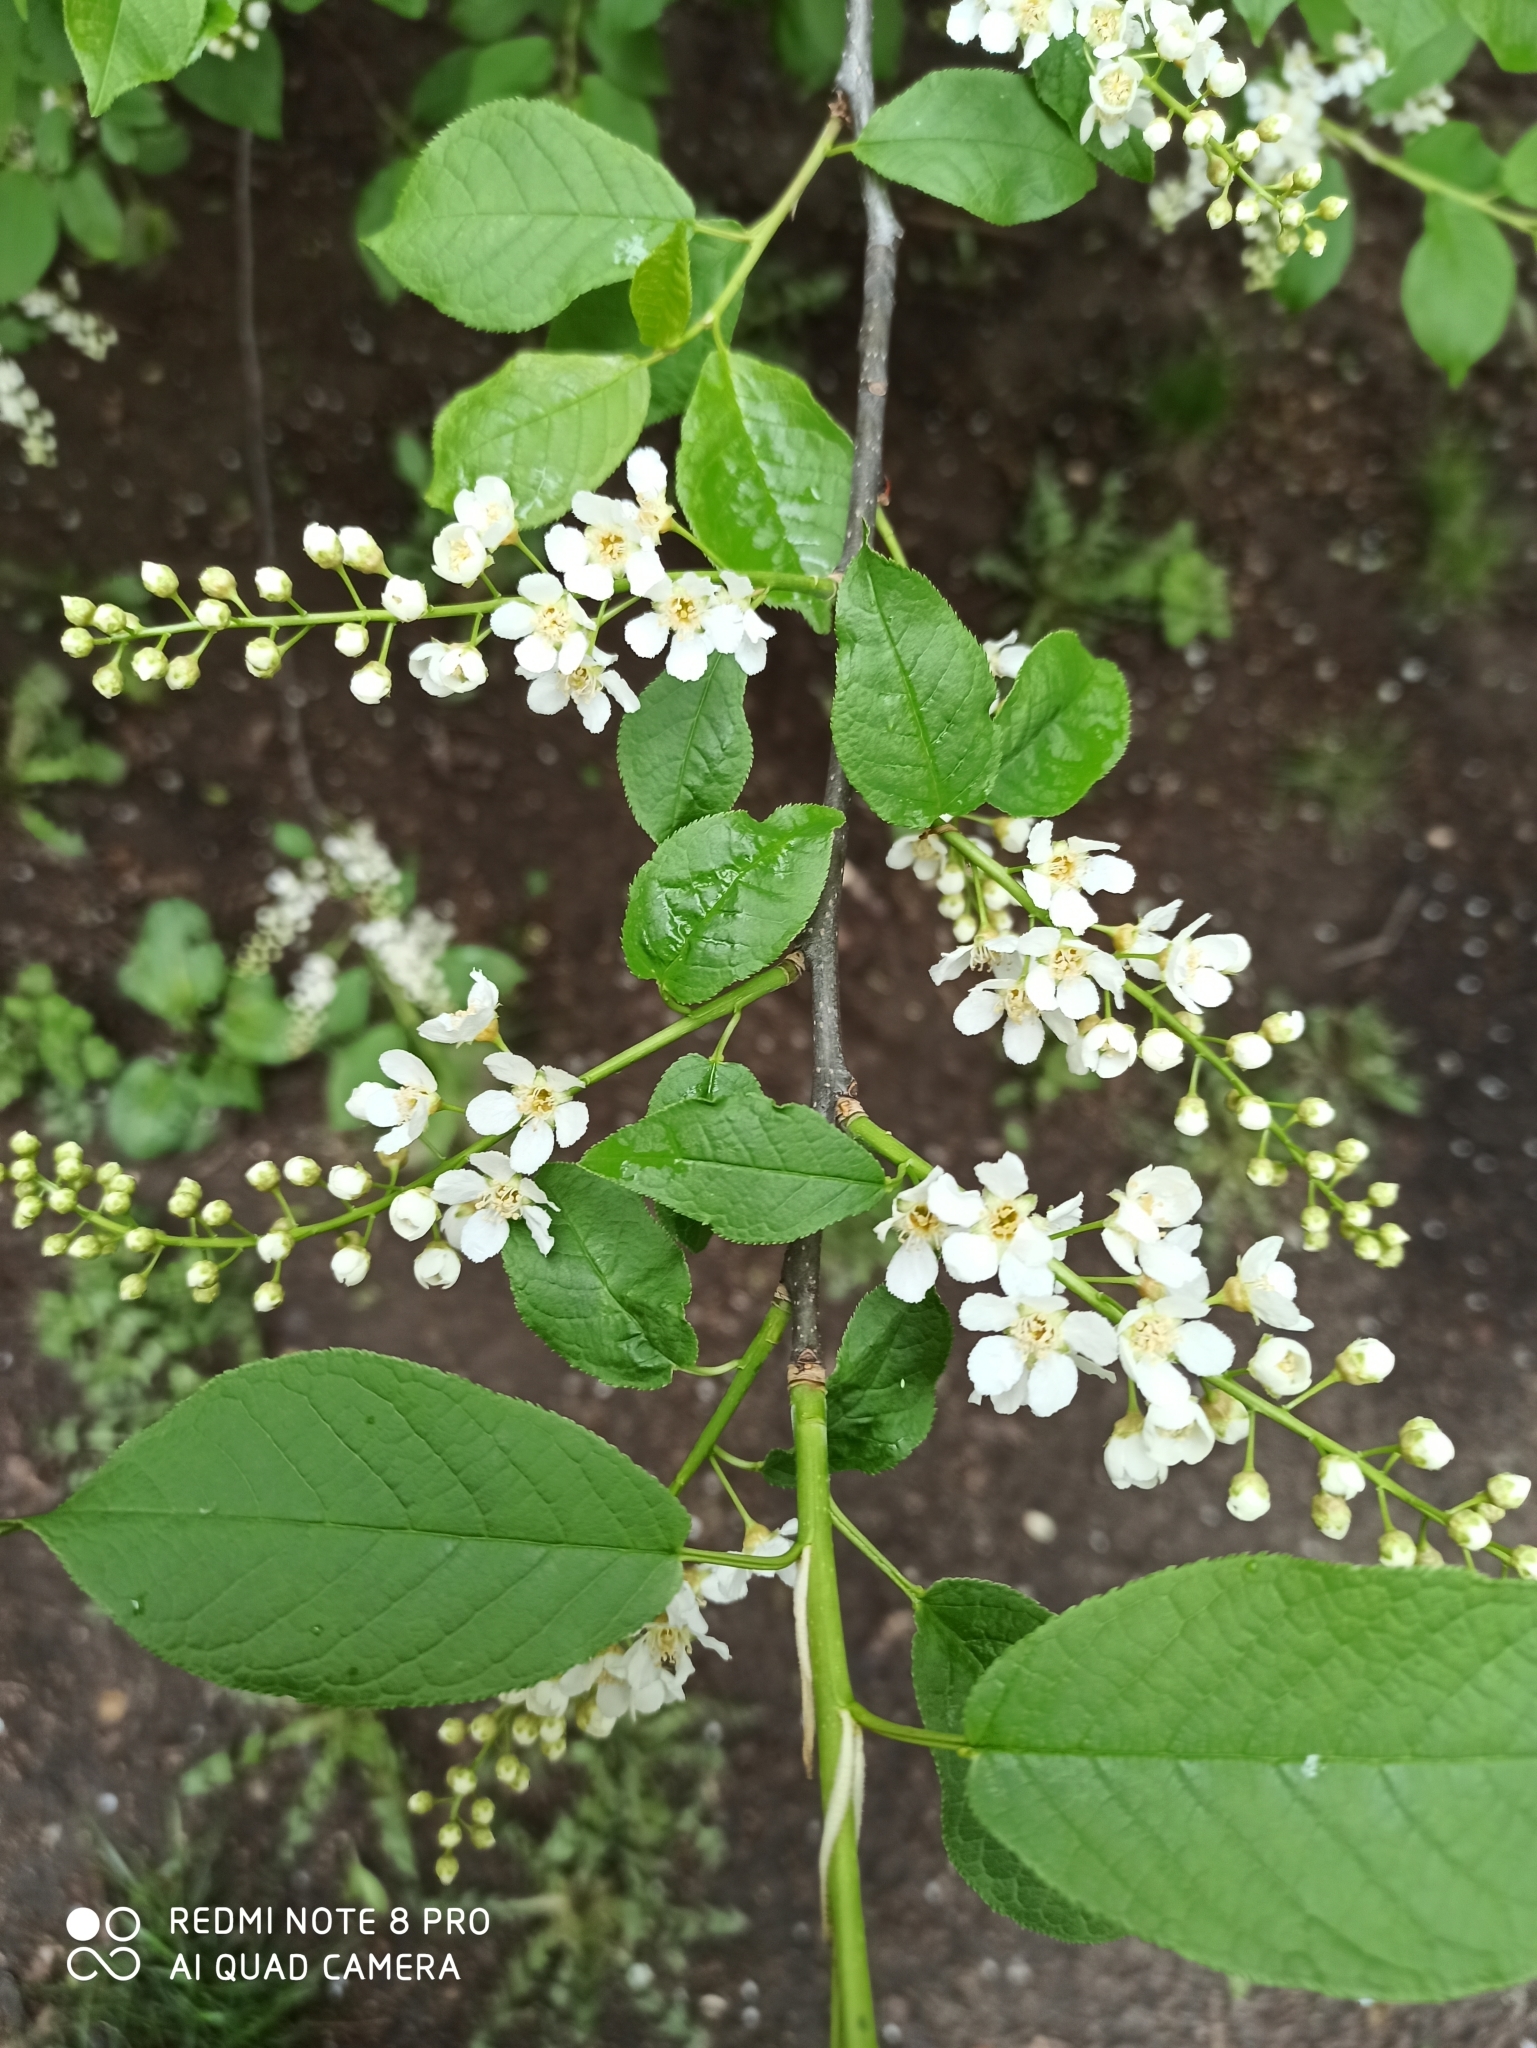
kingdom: Plantae
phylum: Tracheophyta
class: Magnoliopsida
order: Rosales
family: Rosaceae
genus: Prunus
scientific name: Prunus padus
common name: Bird cherry
